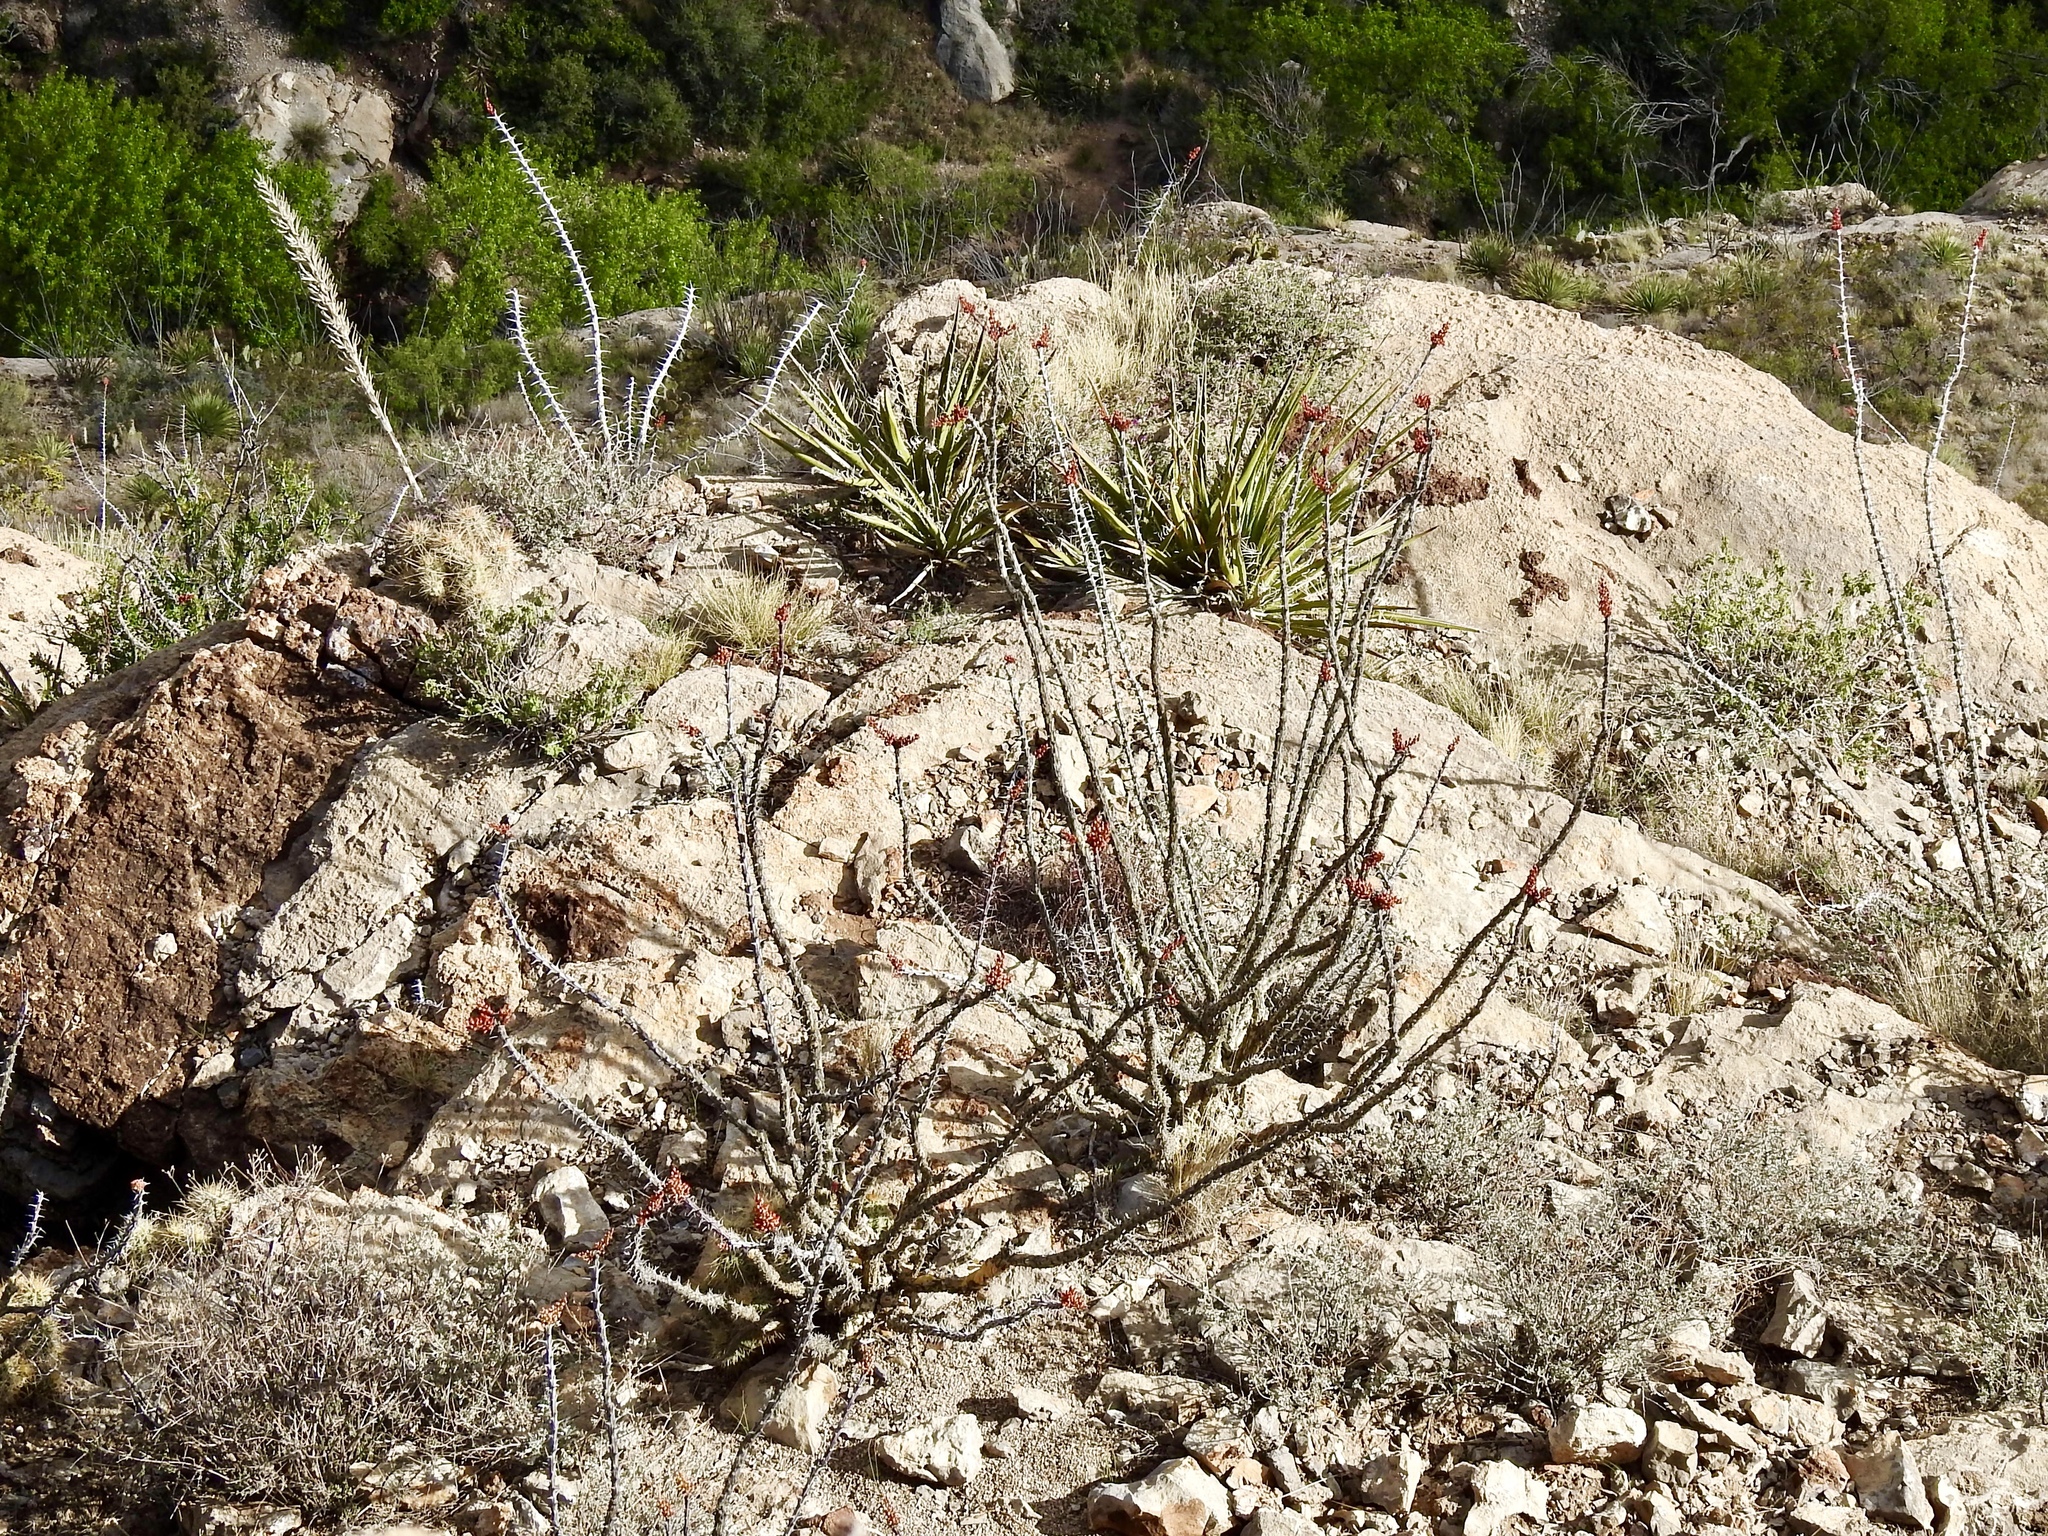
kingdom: Plantae
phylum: Tracheophyta
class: Magnoliopsida
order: Ericales
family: Fouquieriaceae
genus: Fouquieria
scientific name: Fouquieria splendens
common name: Vine-cactus
